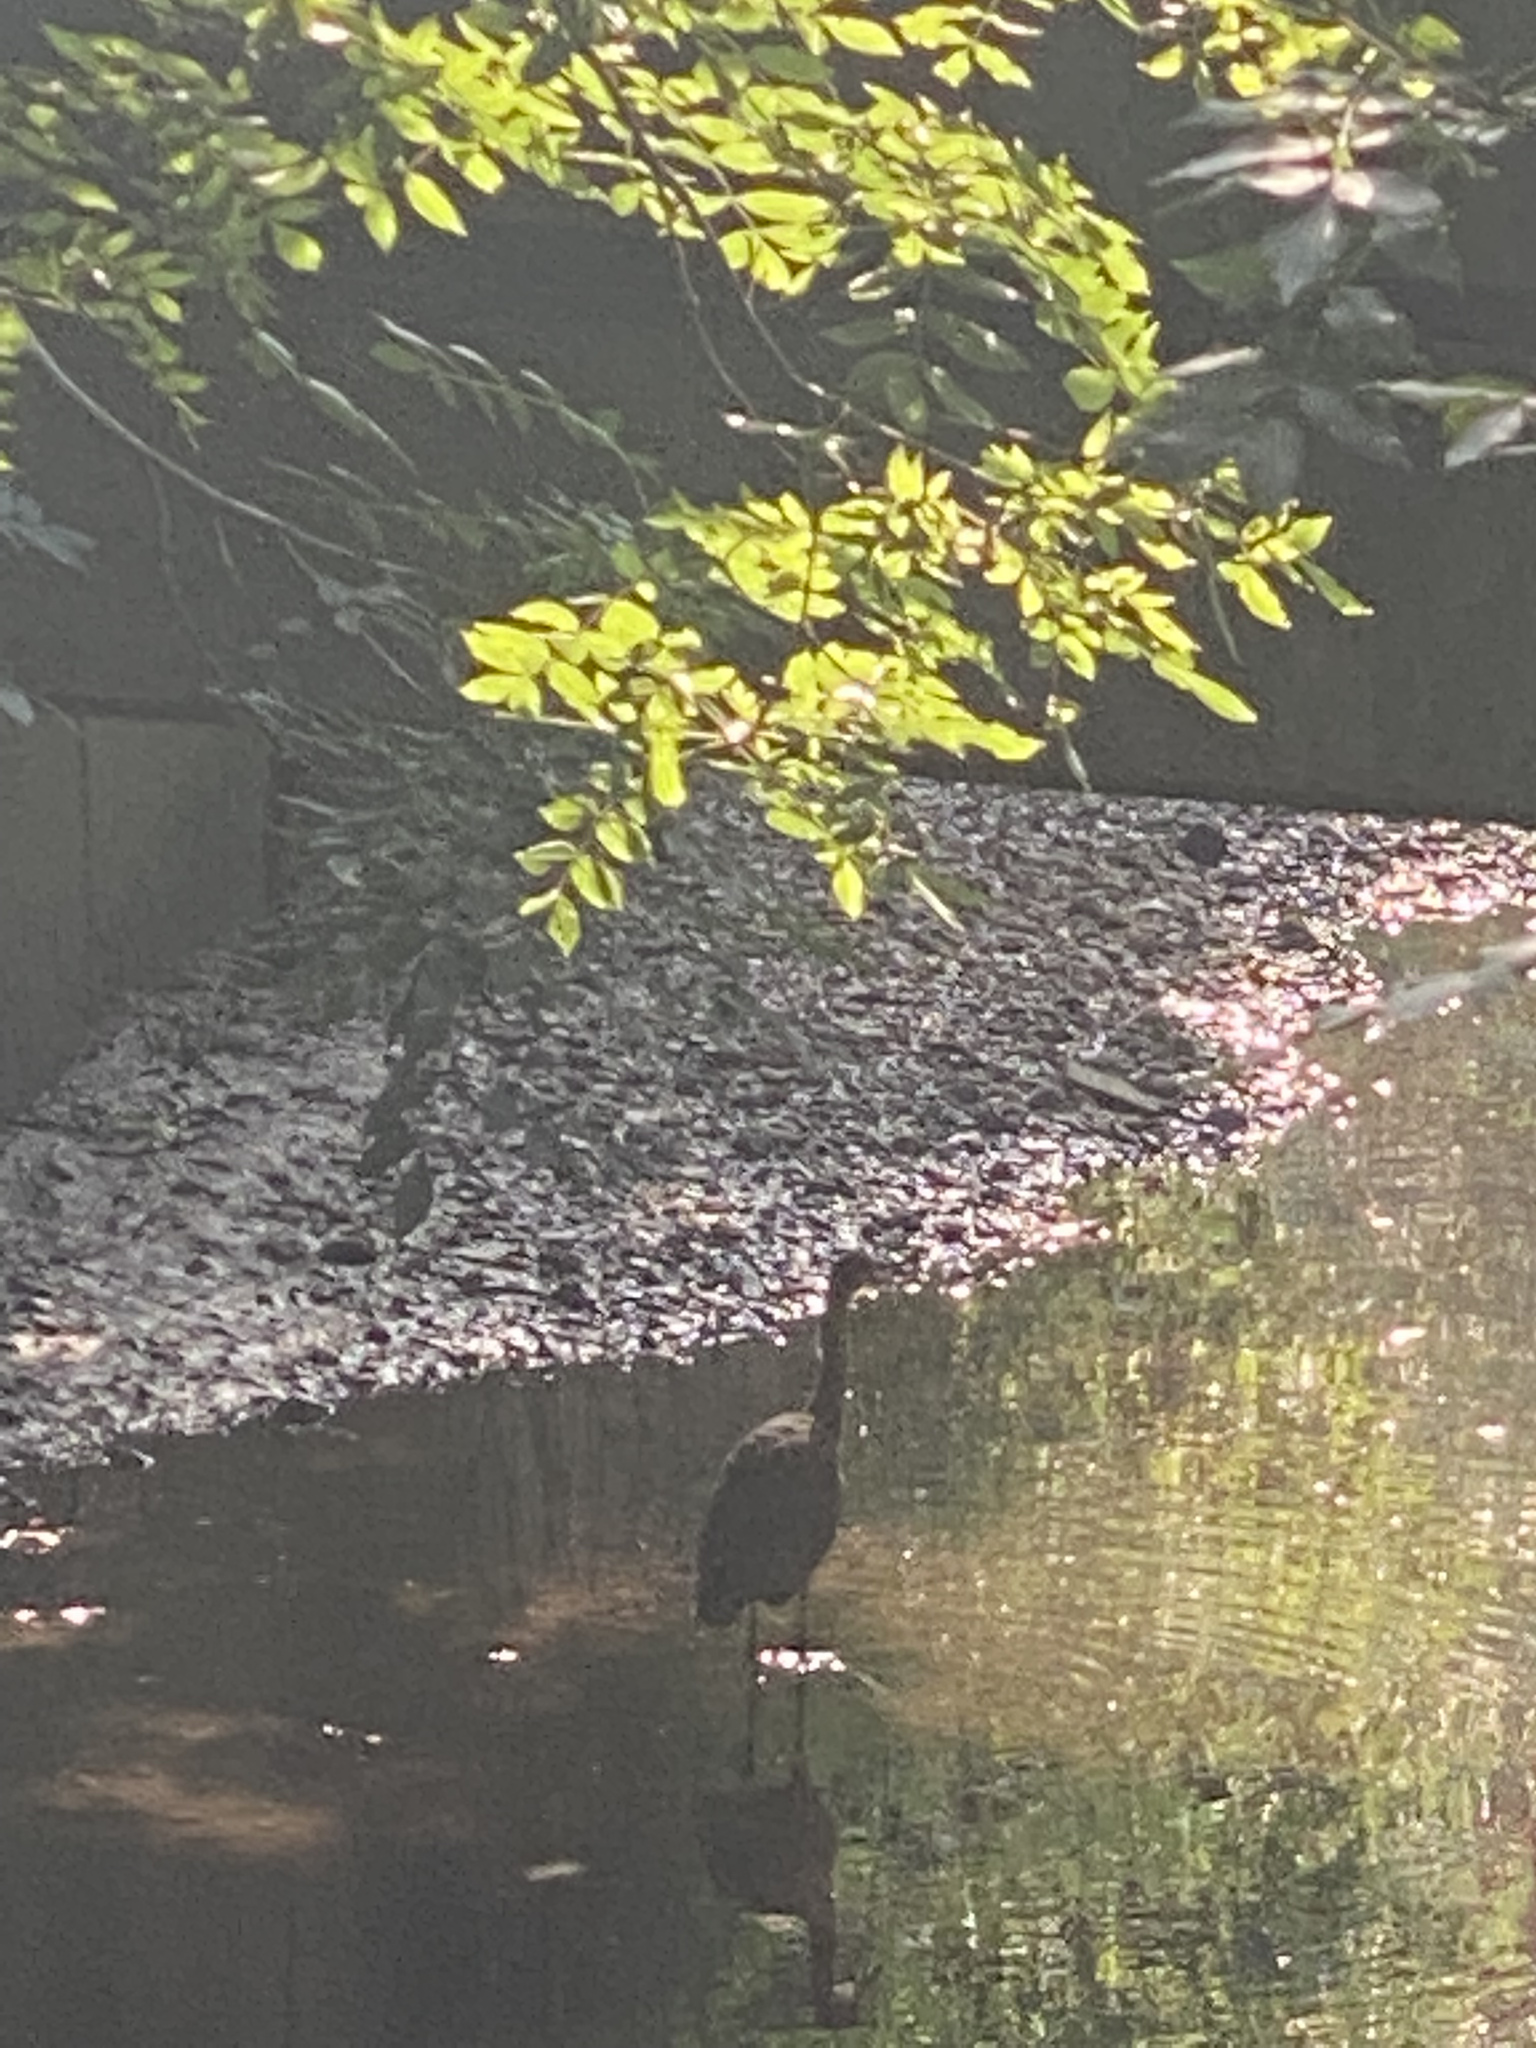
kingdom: Animalia
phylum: Chordata
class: Aves
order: Pelecaniformes
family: Ardeidae
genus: Ardea
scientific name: Ardea cinerea
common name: Grey heron
